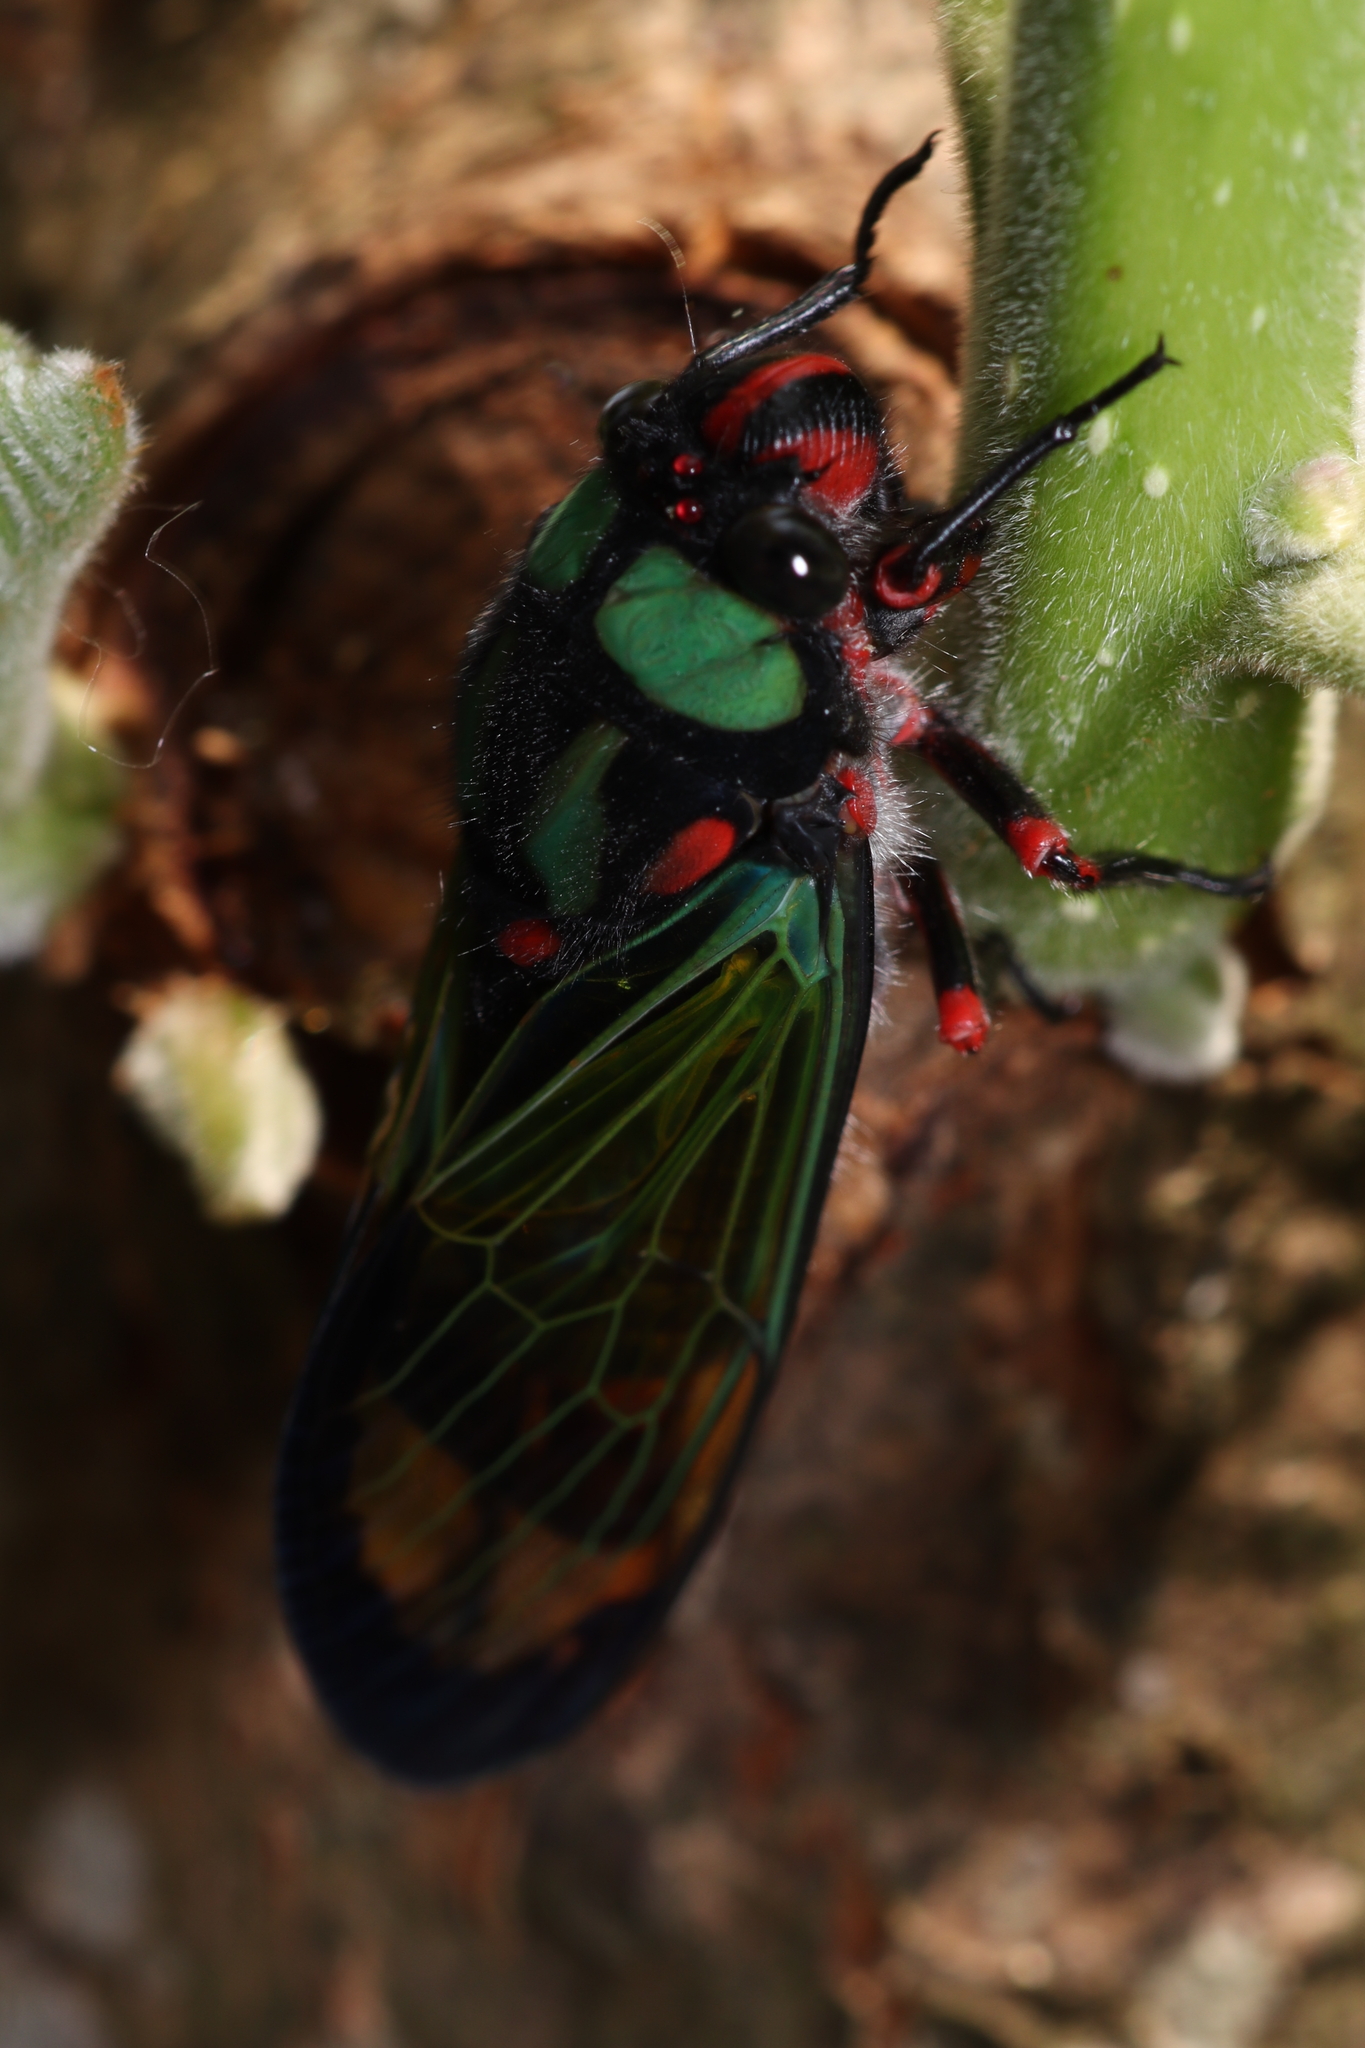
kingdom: Animalia
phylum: Arthropoda
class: Insecta
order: Hemiptera
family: Cicadidae
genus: Carineta
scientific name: Carineta diardi
